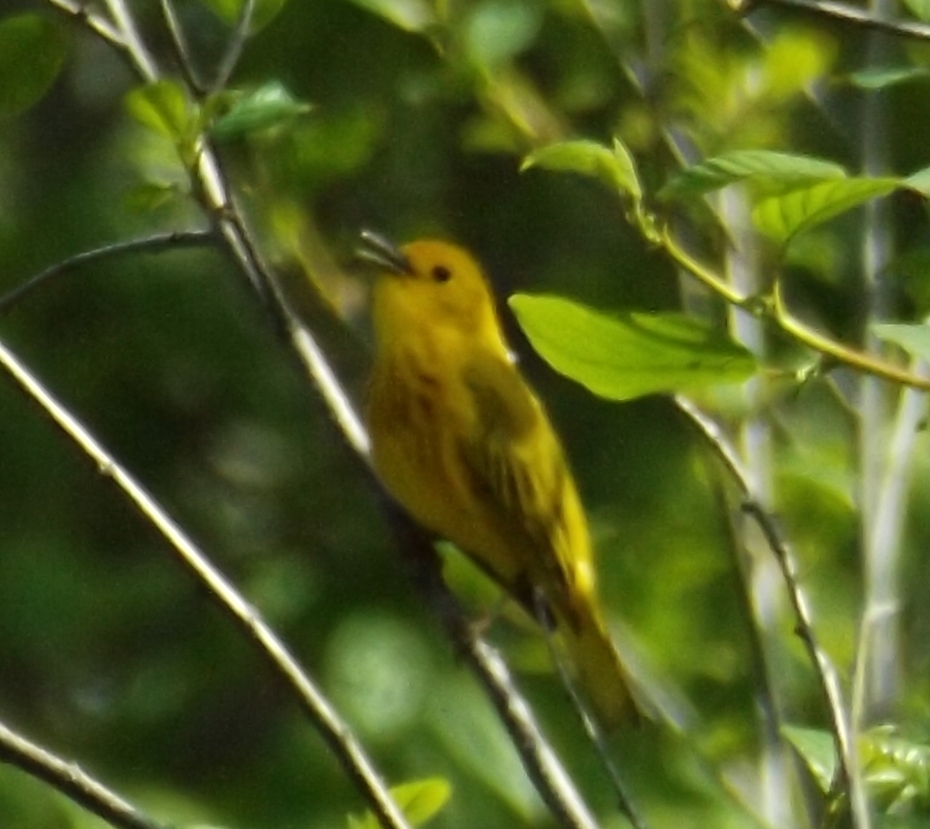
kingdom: Animalia
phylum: Chordata
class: Aves
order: Passeriformes
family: Parulidae
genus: Setophaga
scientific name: Setophaga petechia
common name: Yellow warbler
